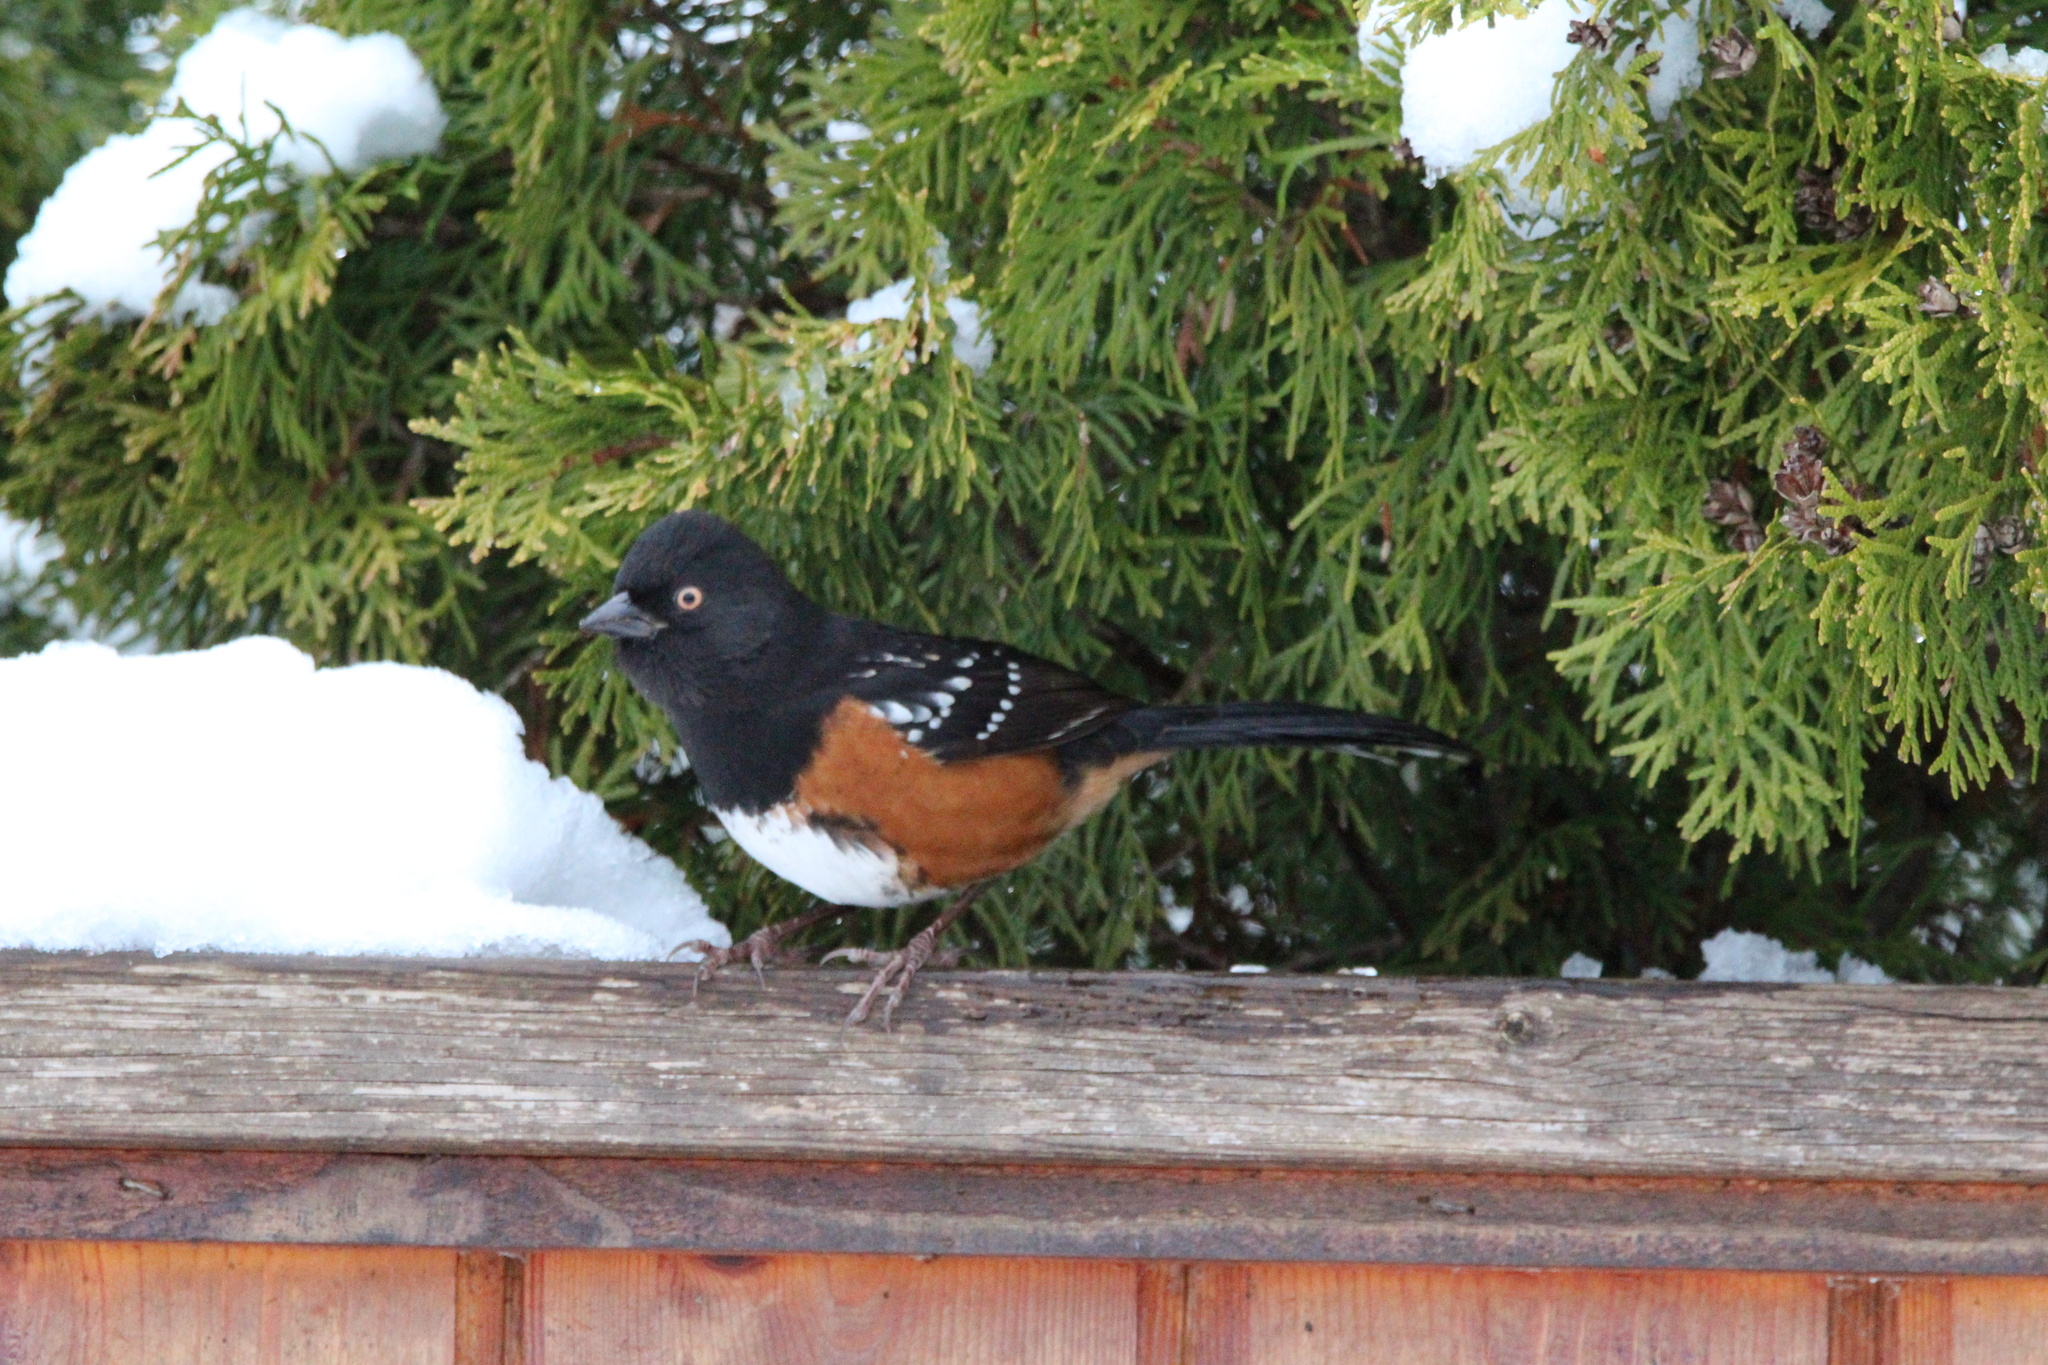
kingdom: Animalia
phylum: Chordata
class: Aves
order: Passeriformes
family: Passerellidae
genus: Pipilo
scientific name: Pipilo maculatus
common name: Spotted towhee
